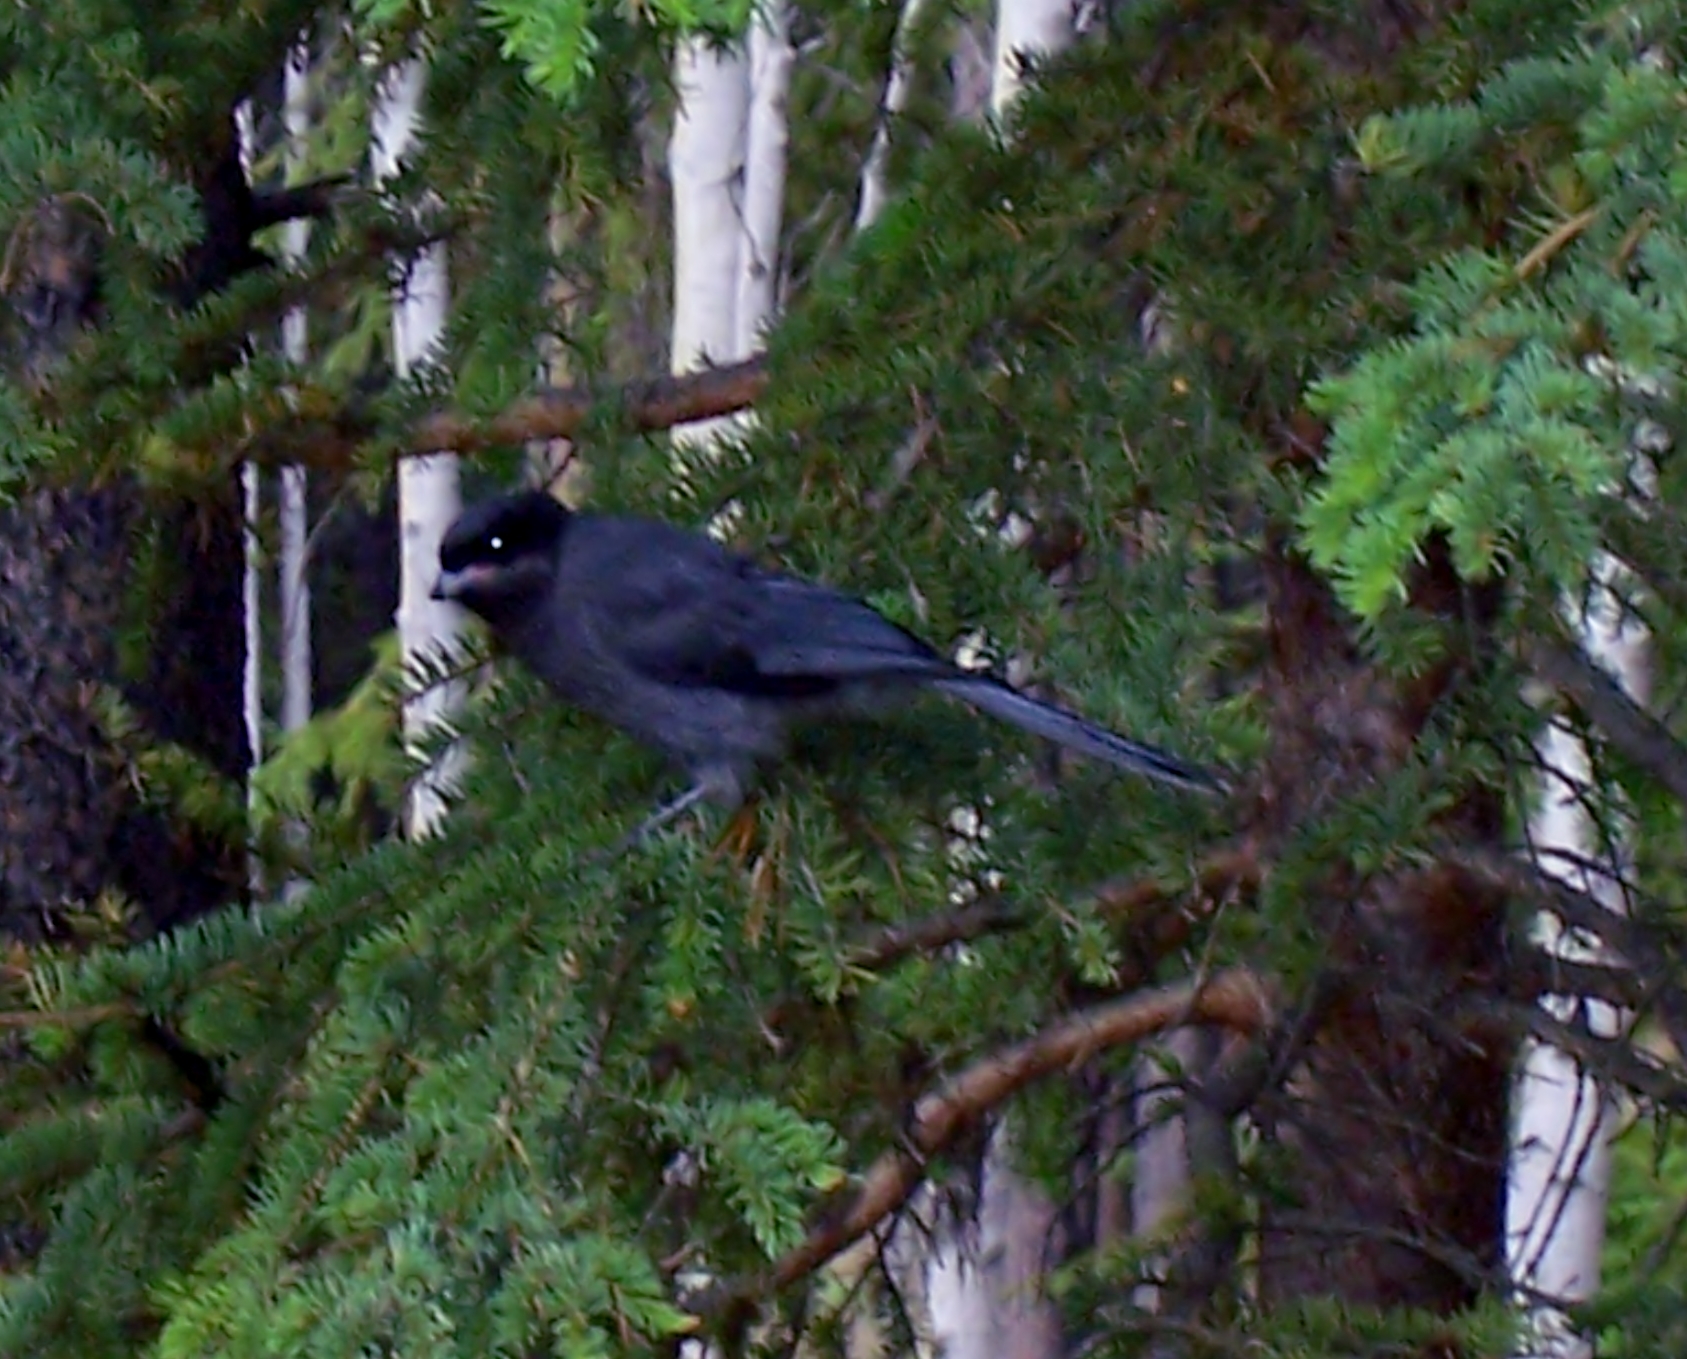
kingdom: Animalia
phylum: Chordata
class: Aves
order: Passeriformes
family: Corvidae
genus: Perisoreus
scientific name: Perisoreus canadensis
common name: Gray jay
